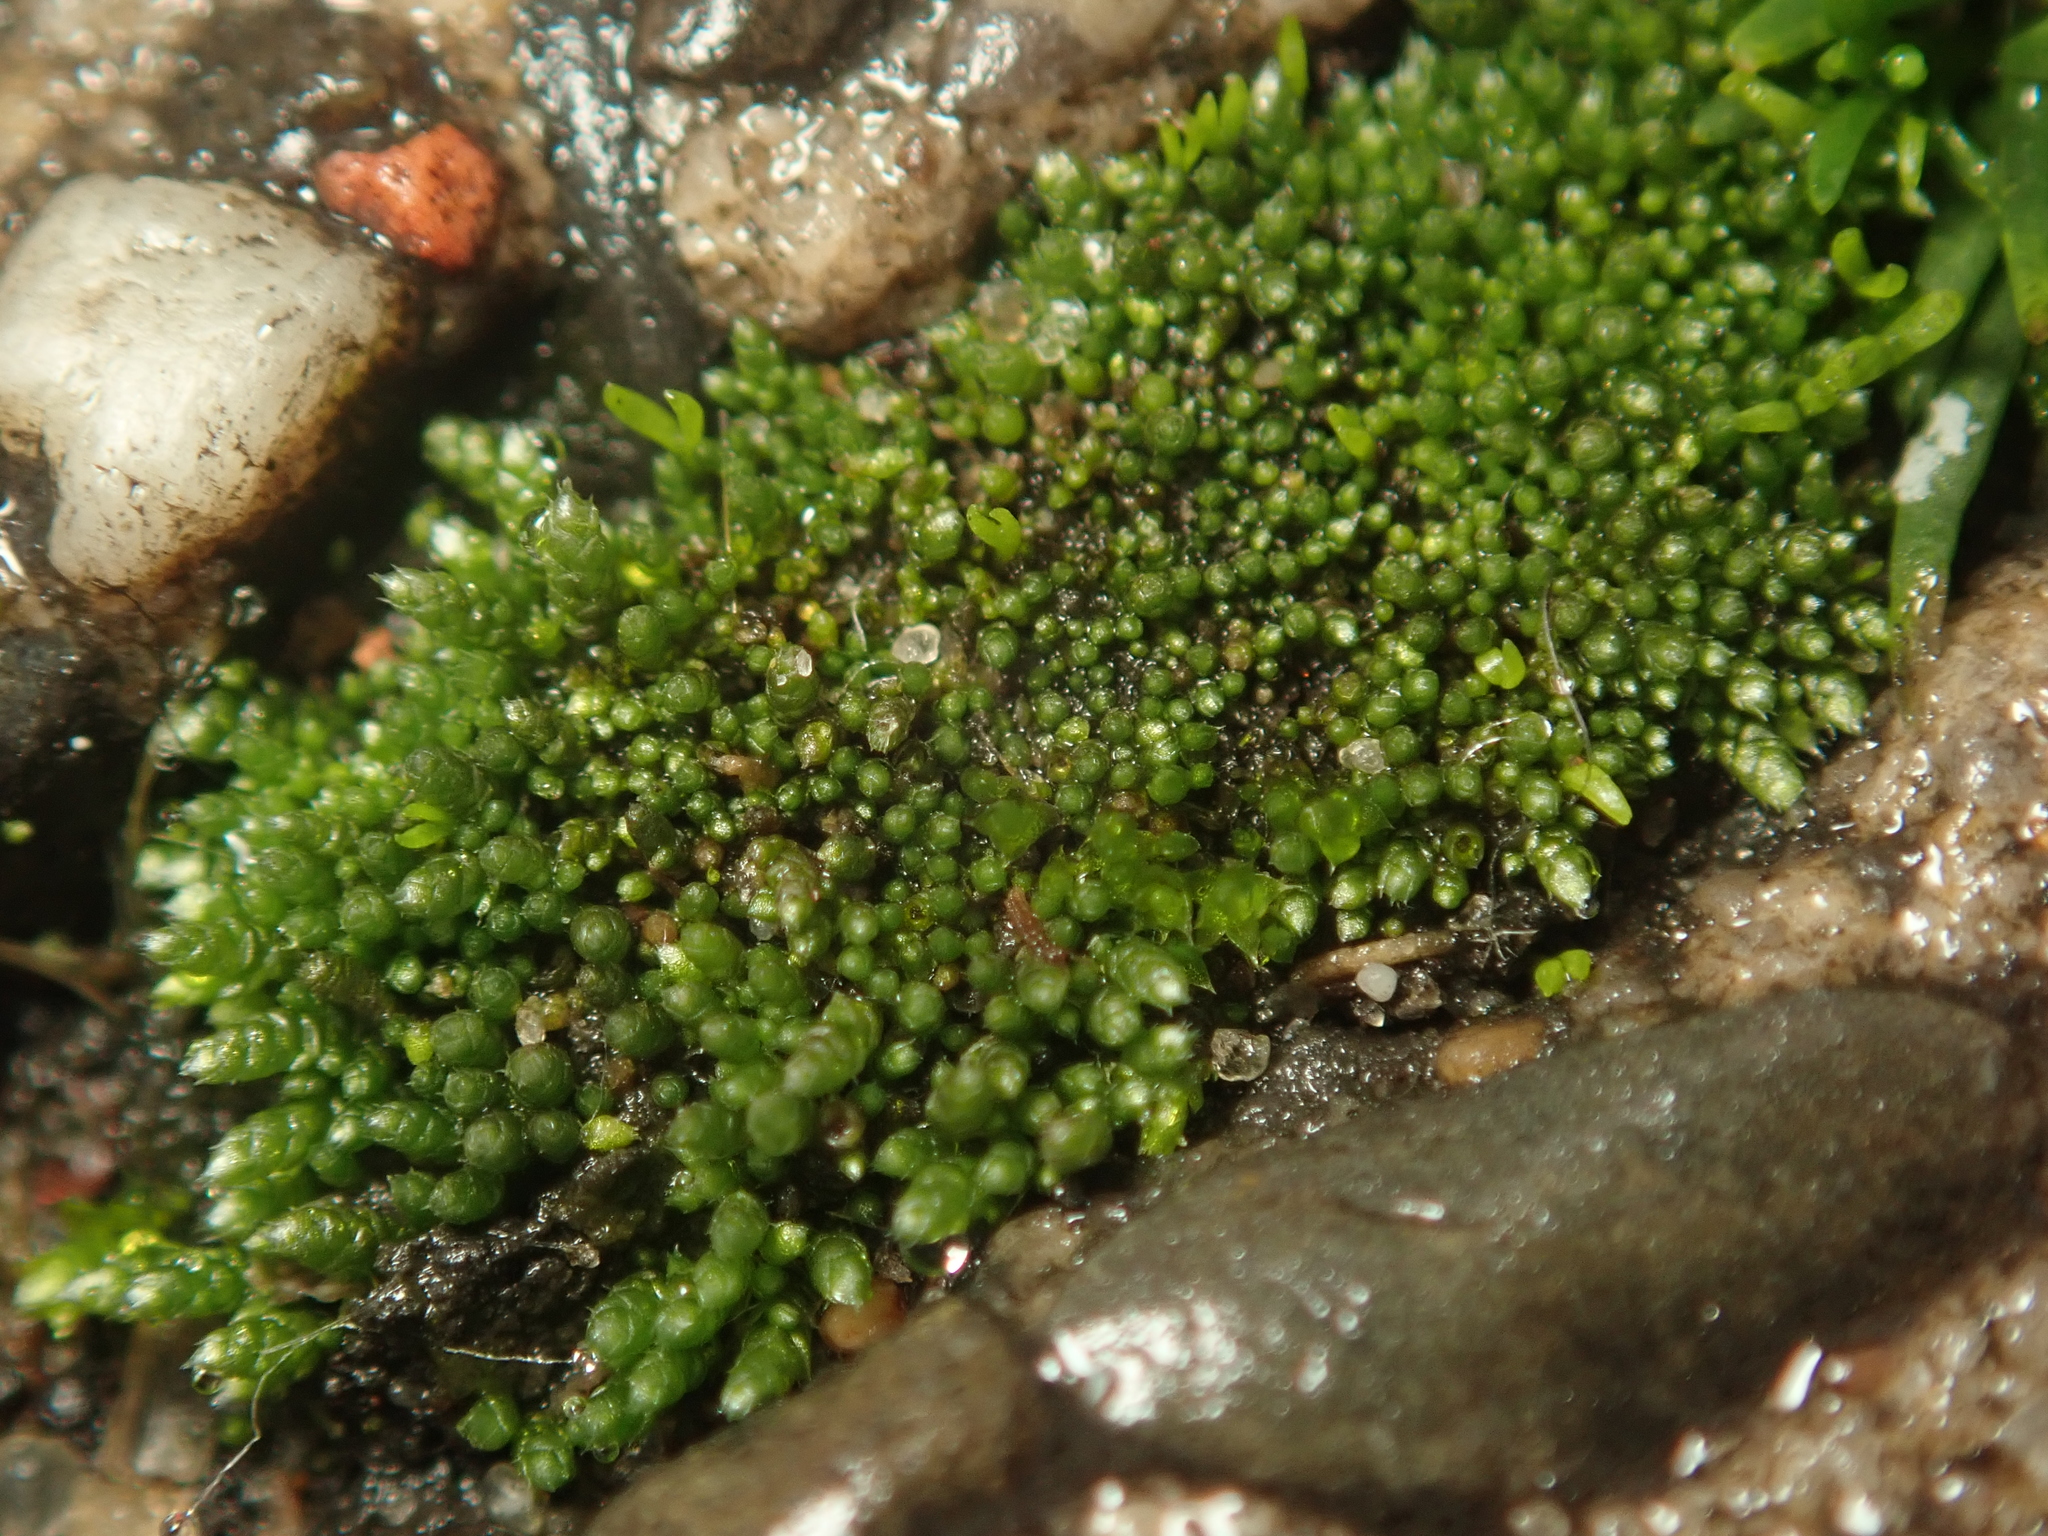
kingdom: Plantae
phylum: Bryophyta
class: Bryopsida
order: Bryales
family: Bryaceae
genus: Bryum
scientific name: Bryum argenteum
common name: Silver-moss
